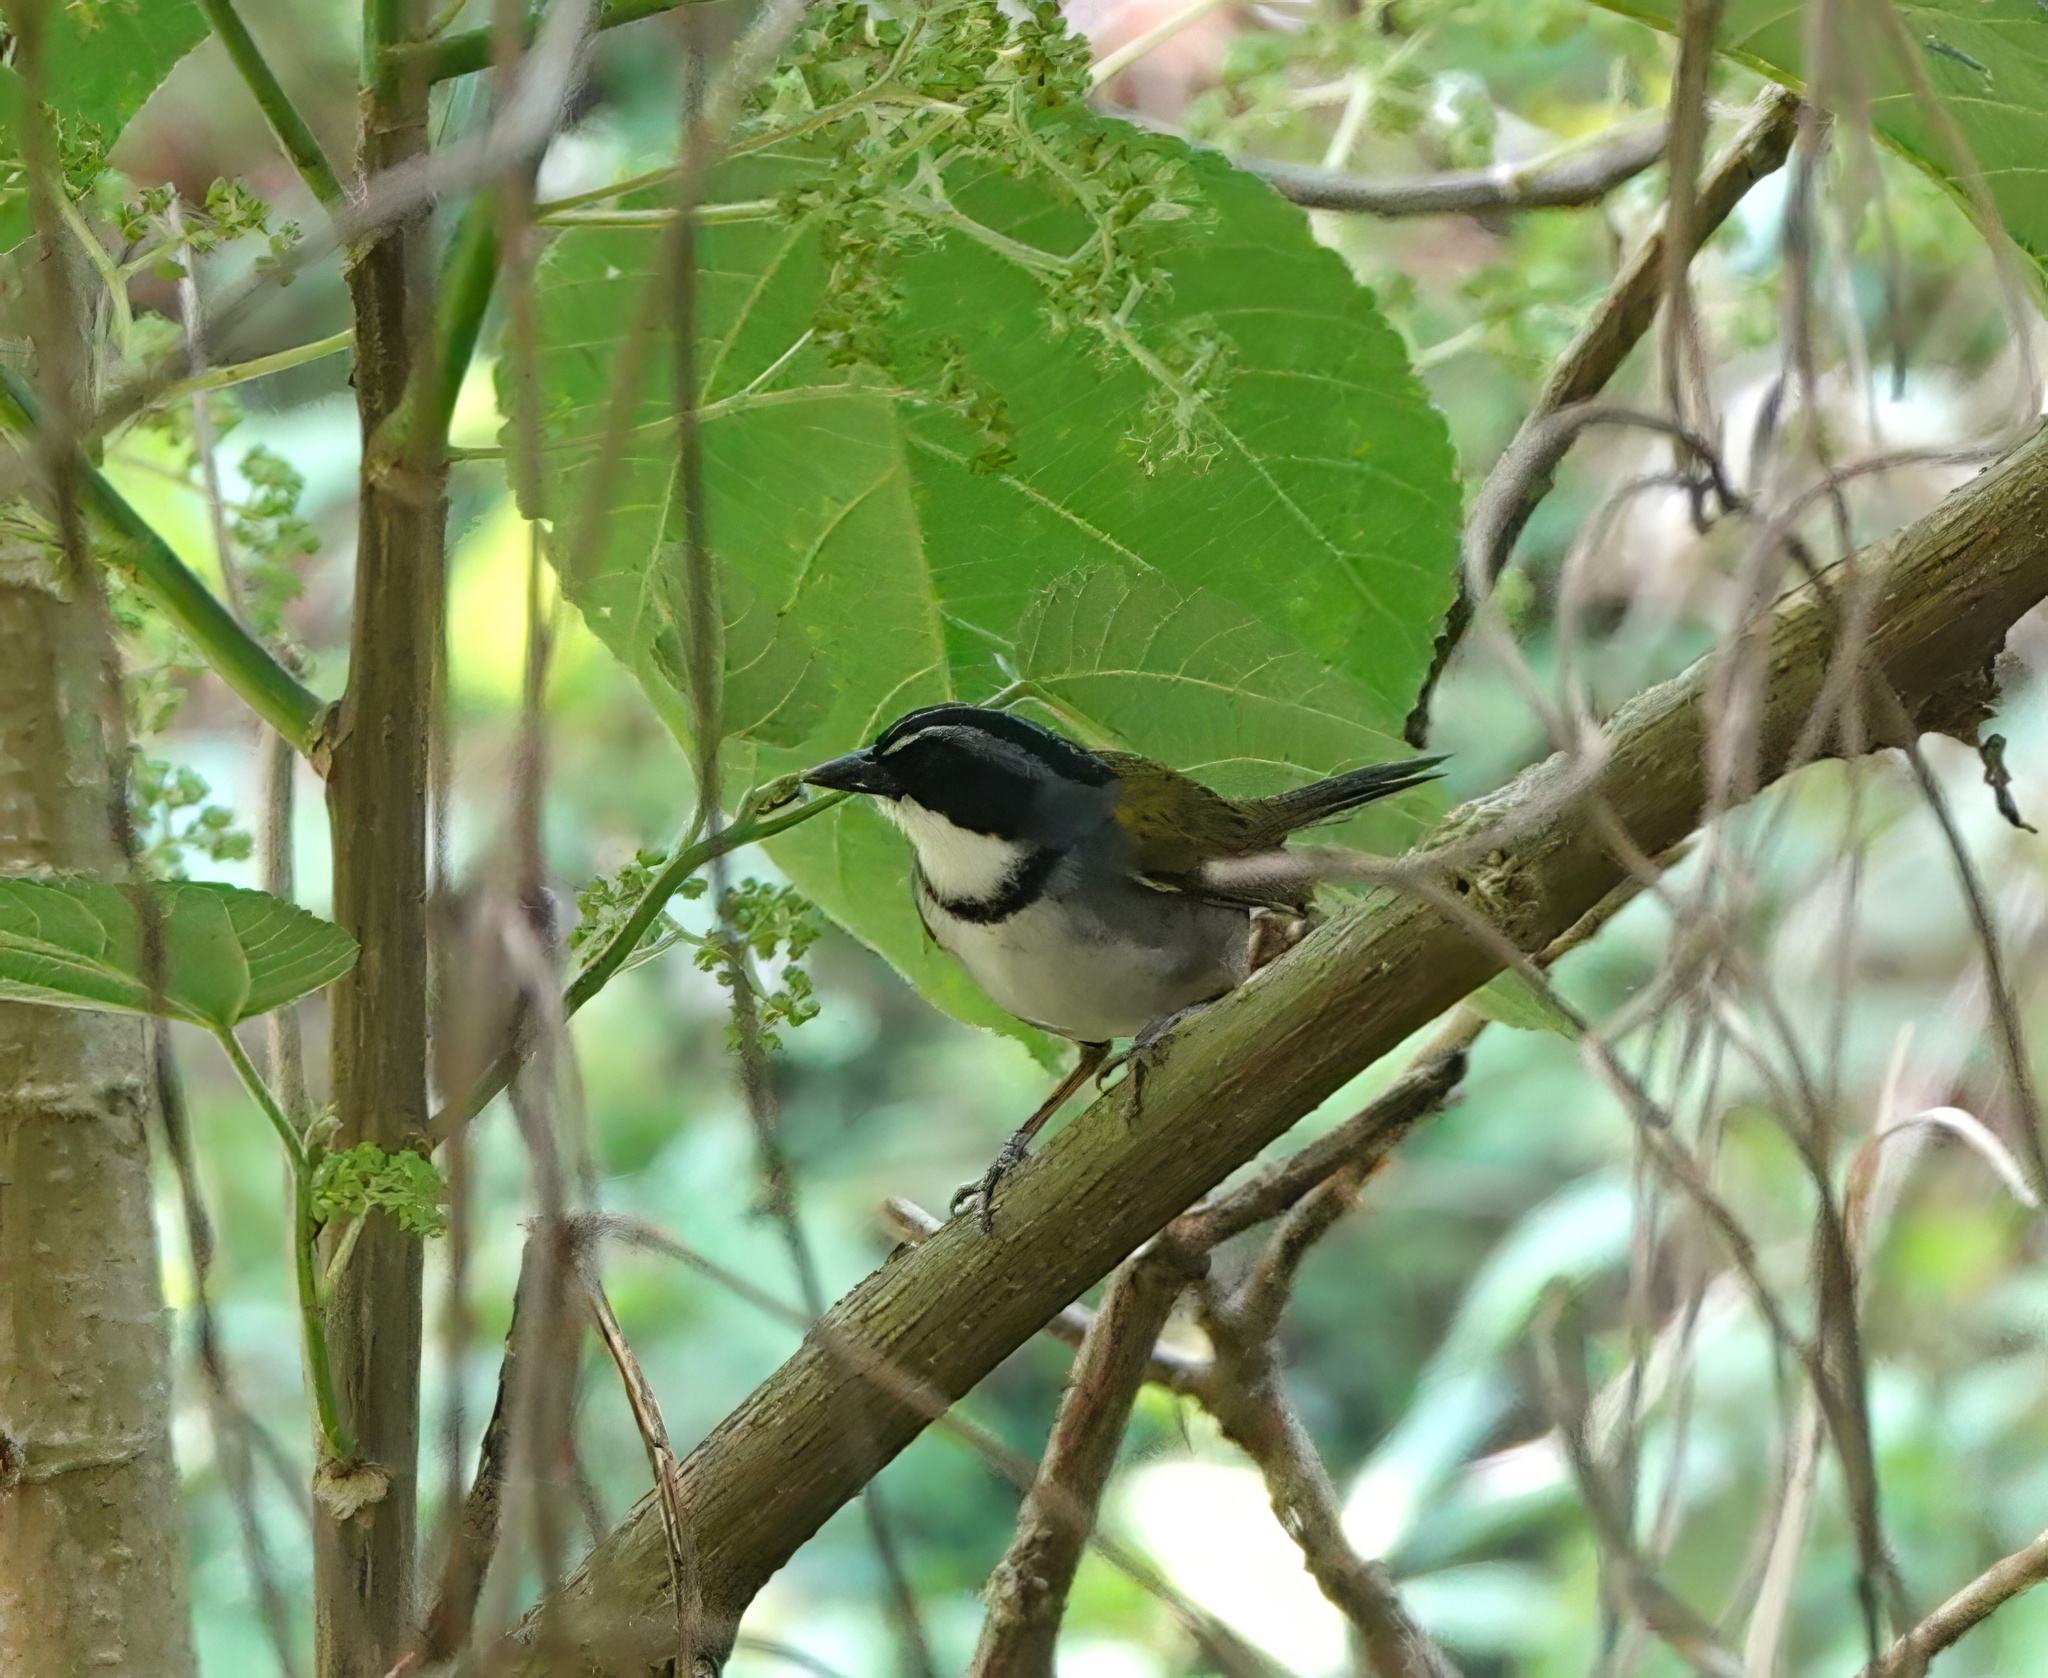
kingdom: Animalia
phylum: Chordata
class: Aves
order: Passeriformes
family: Passerellidae
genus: Arremon
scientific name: Arremon perijanus
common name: Perija brushfinch
